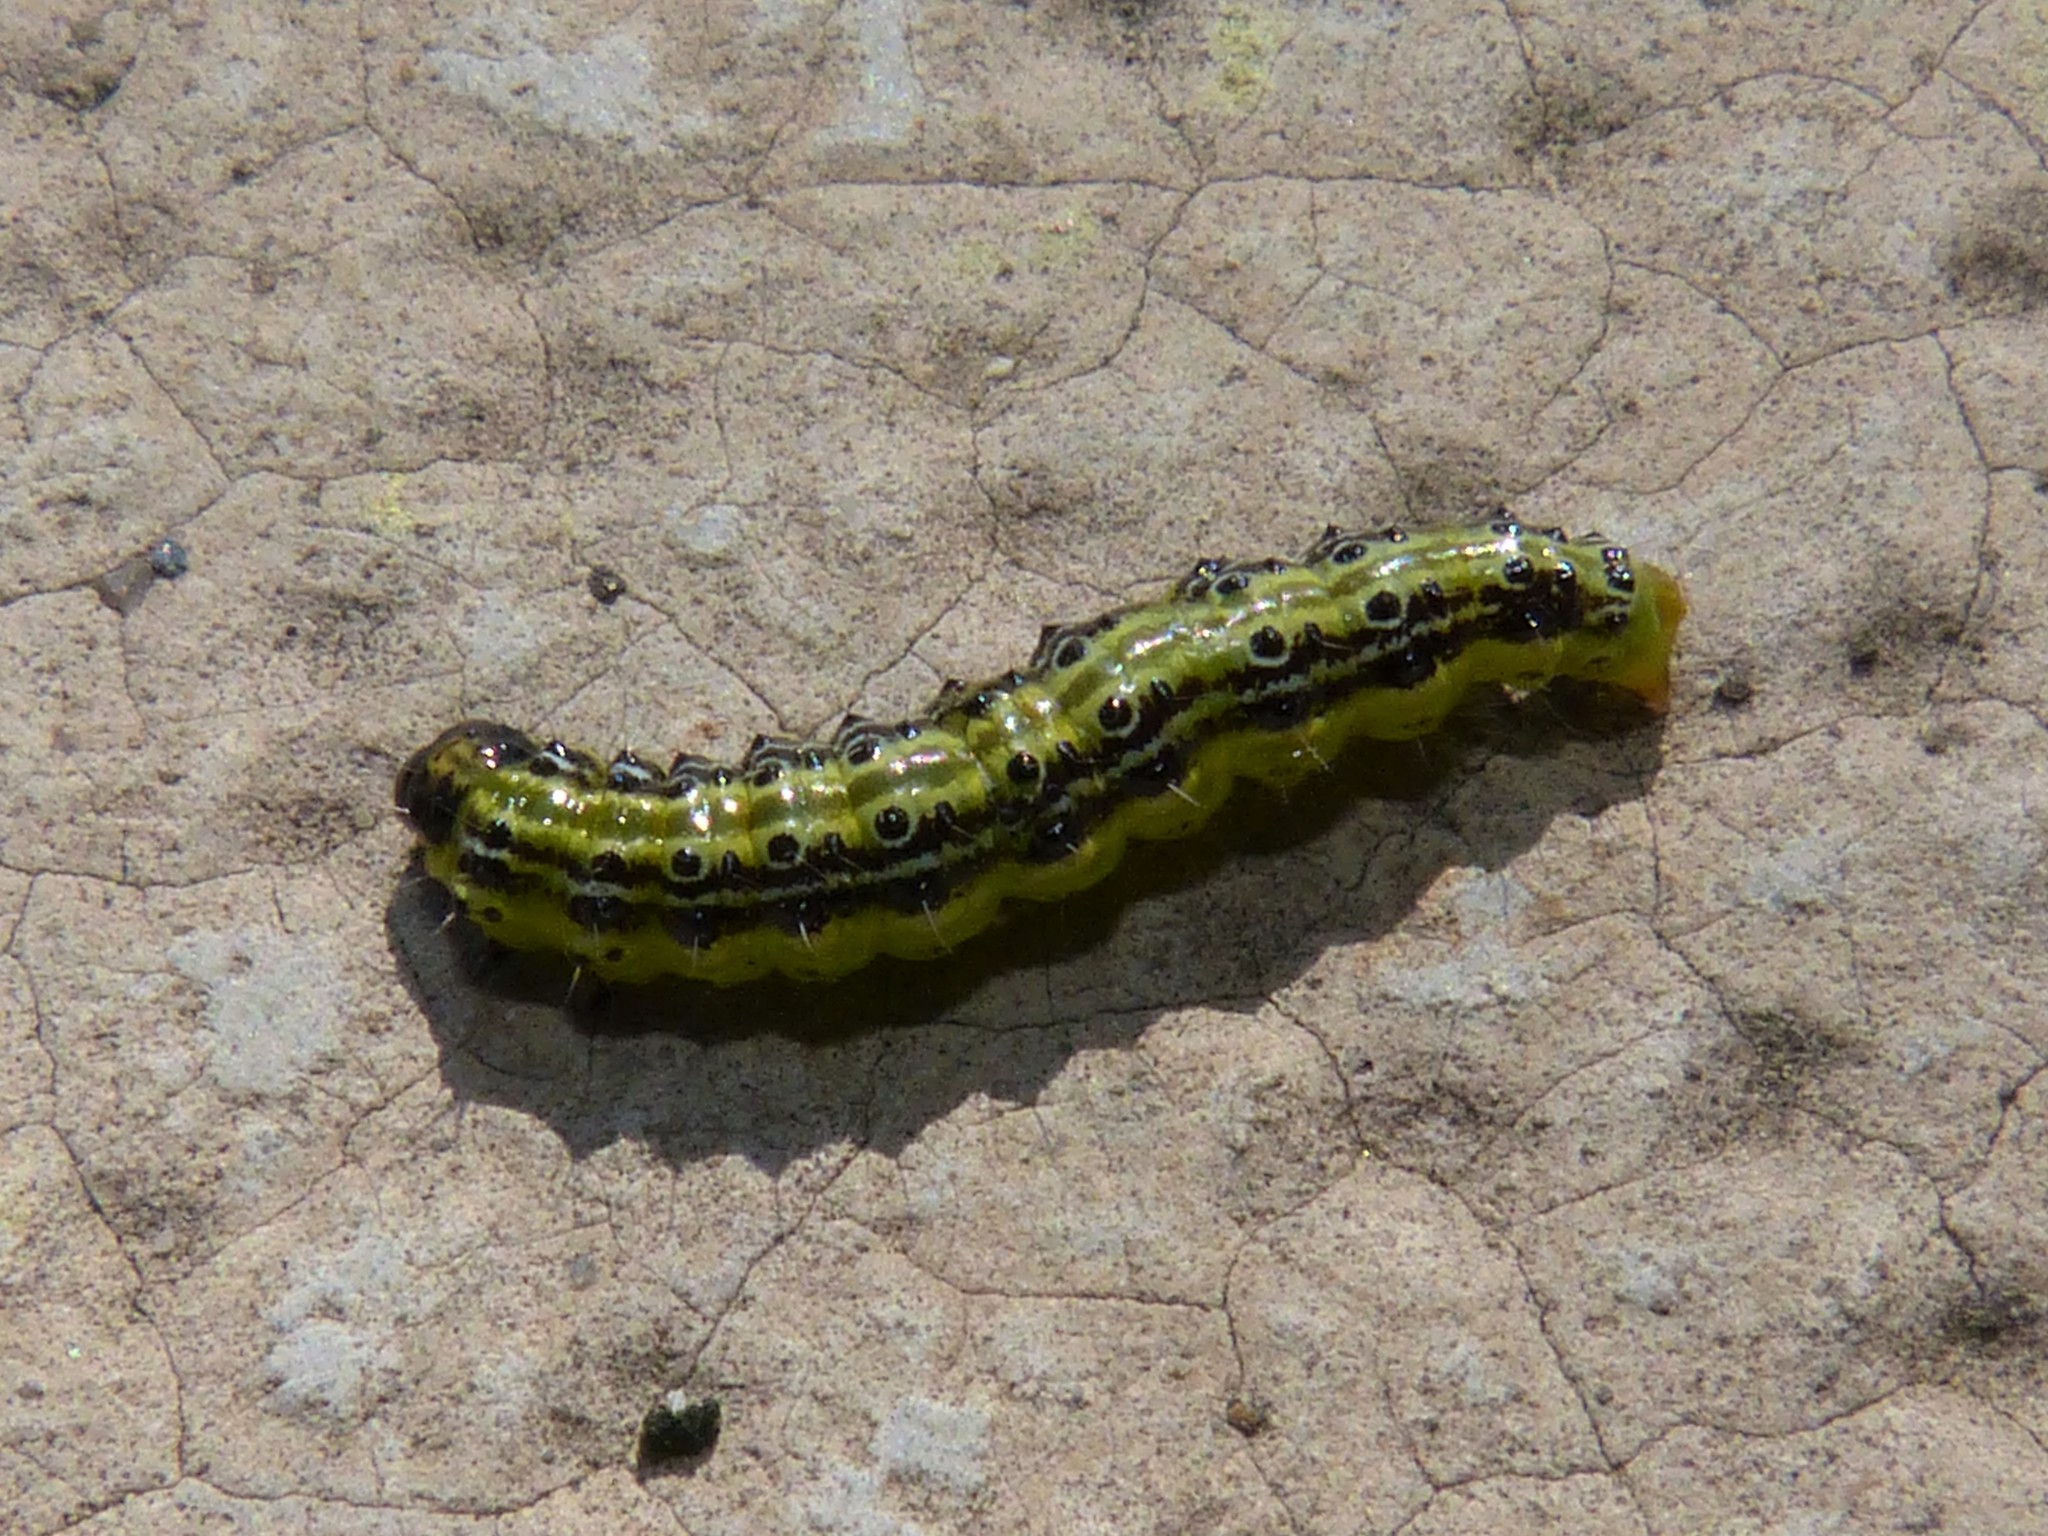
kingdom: Animalia
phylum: Arthropoda
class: Insecta
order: Lepidoptera
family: Crambidae
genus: Cydalima
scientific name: Cydalima perspectalis
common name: Box tree moth
